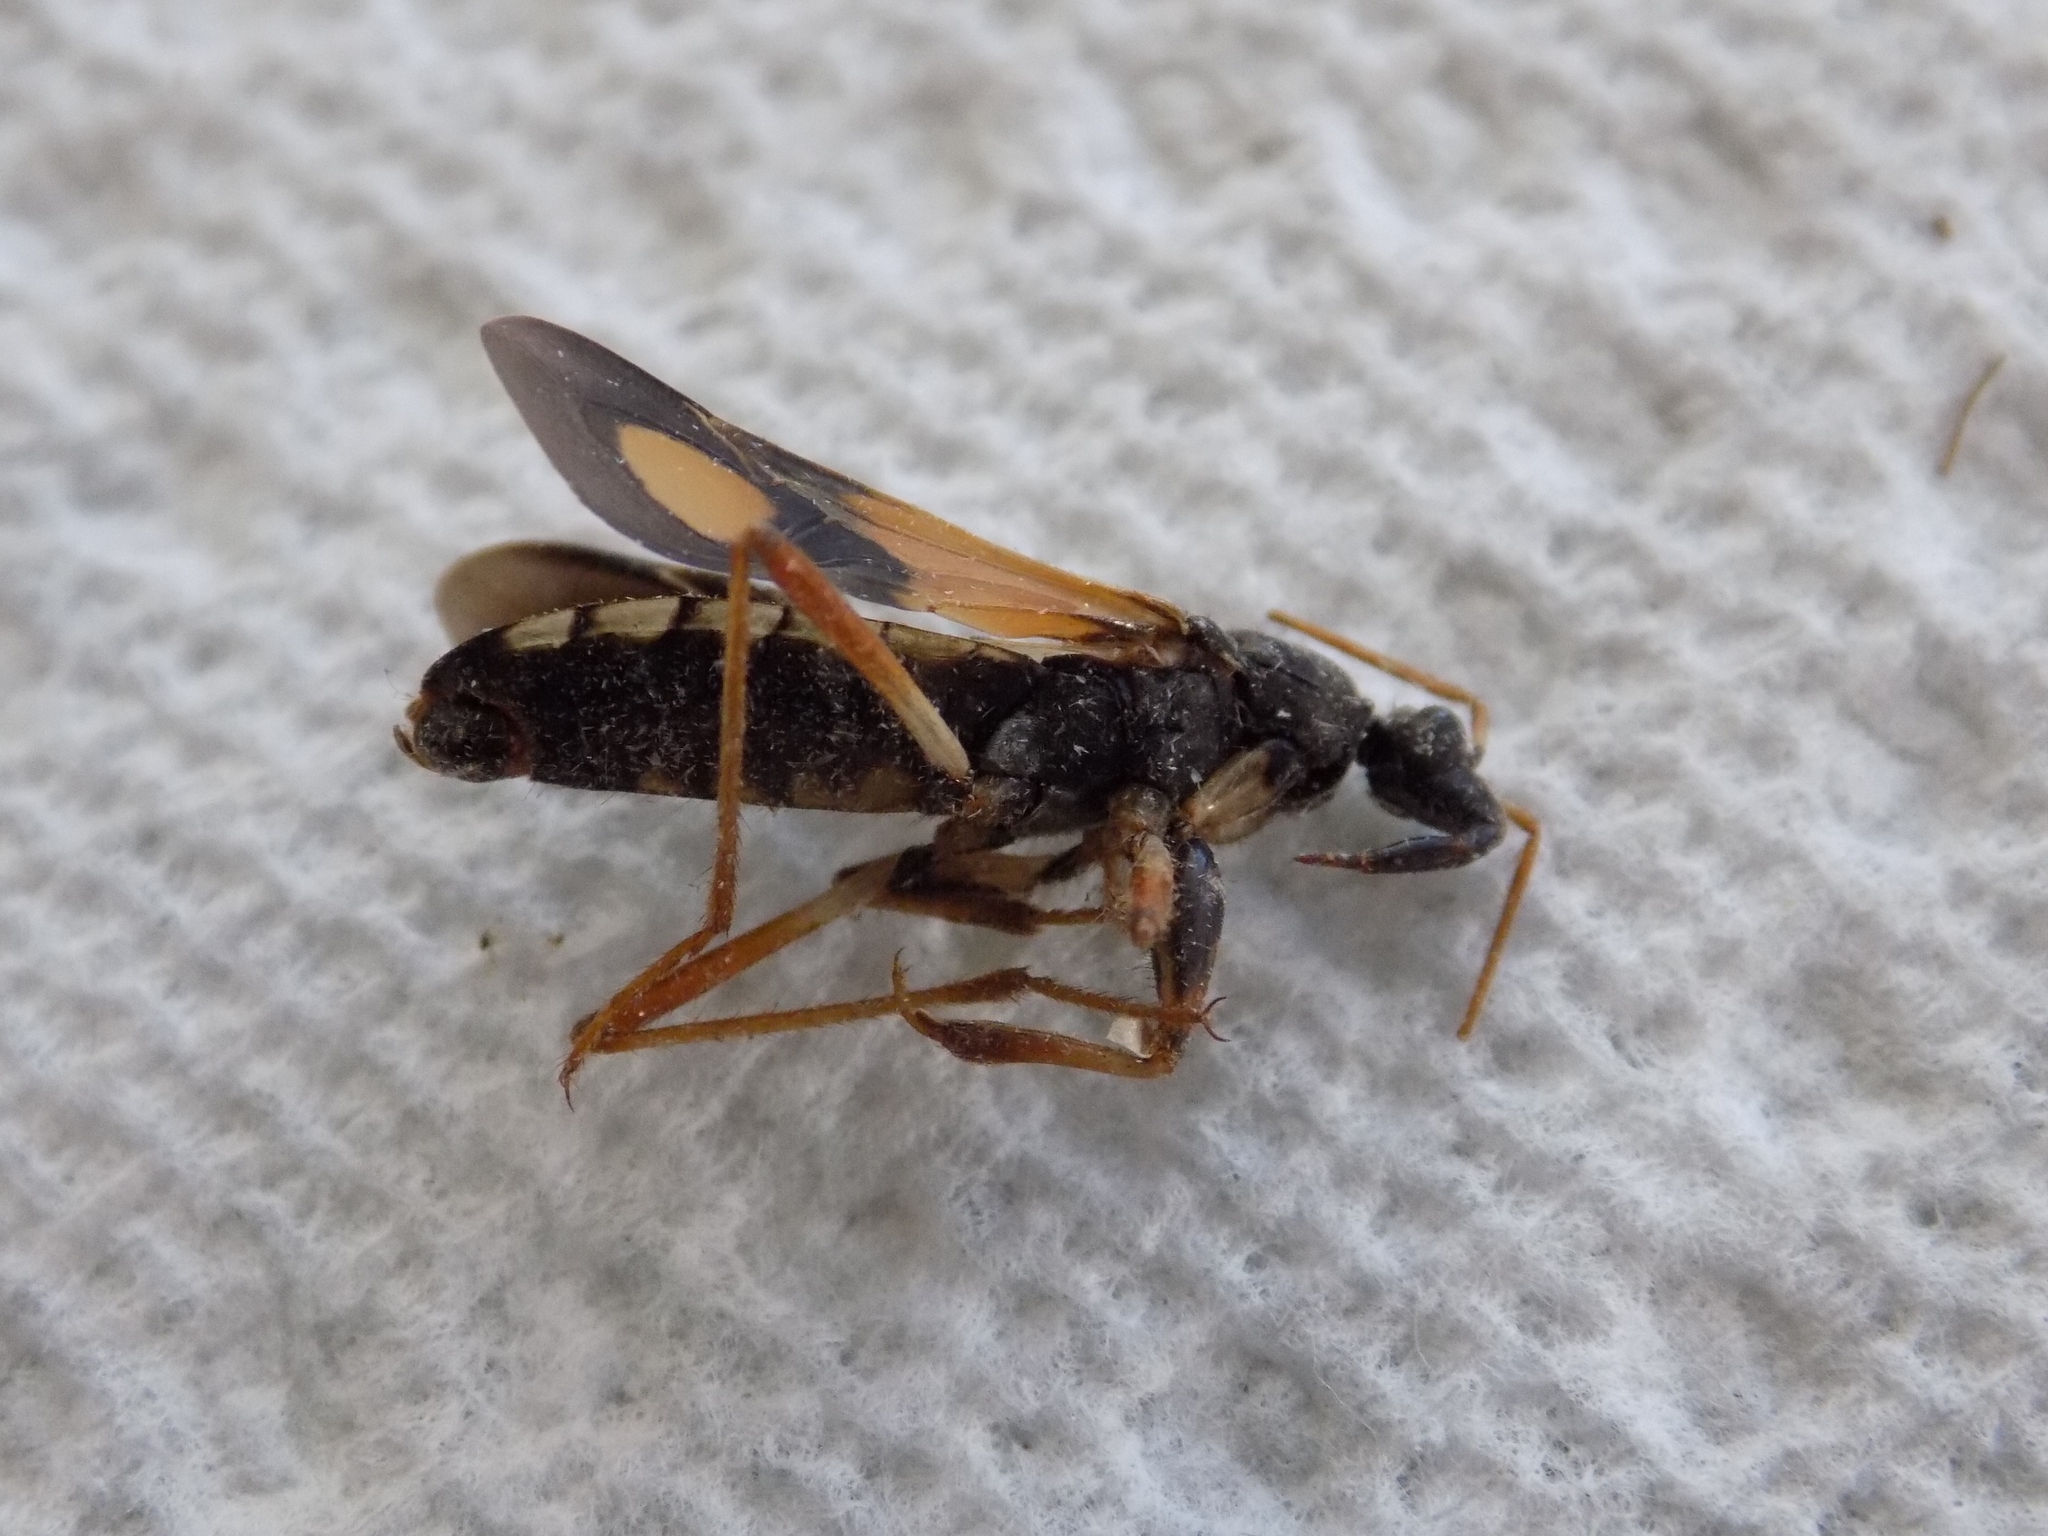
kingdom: Animalia
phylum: Arthropoda
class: Insecta
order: Hemiptera
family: Reduviidae
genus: Rasahus
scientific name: Rasahus biguttatus
